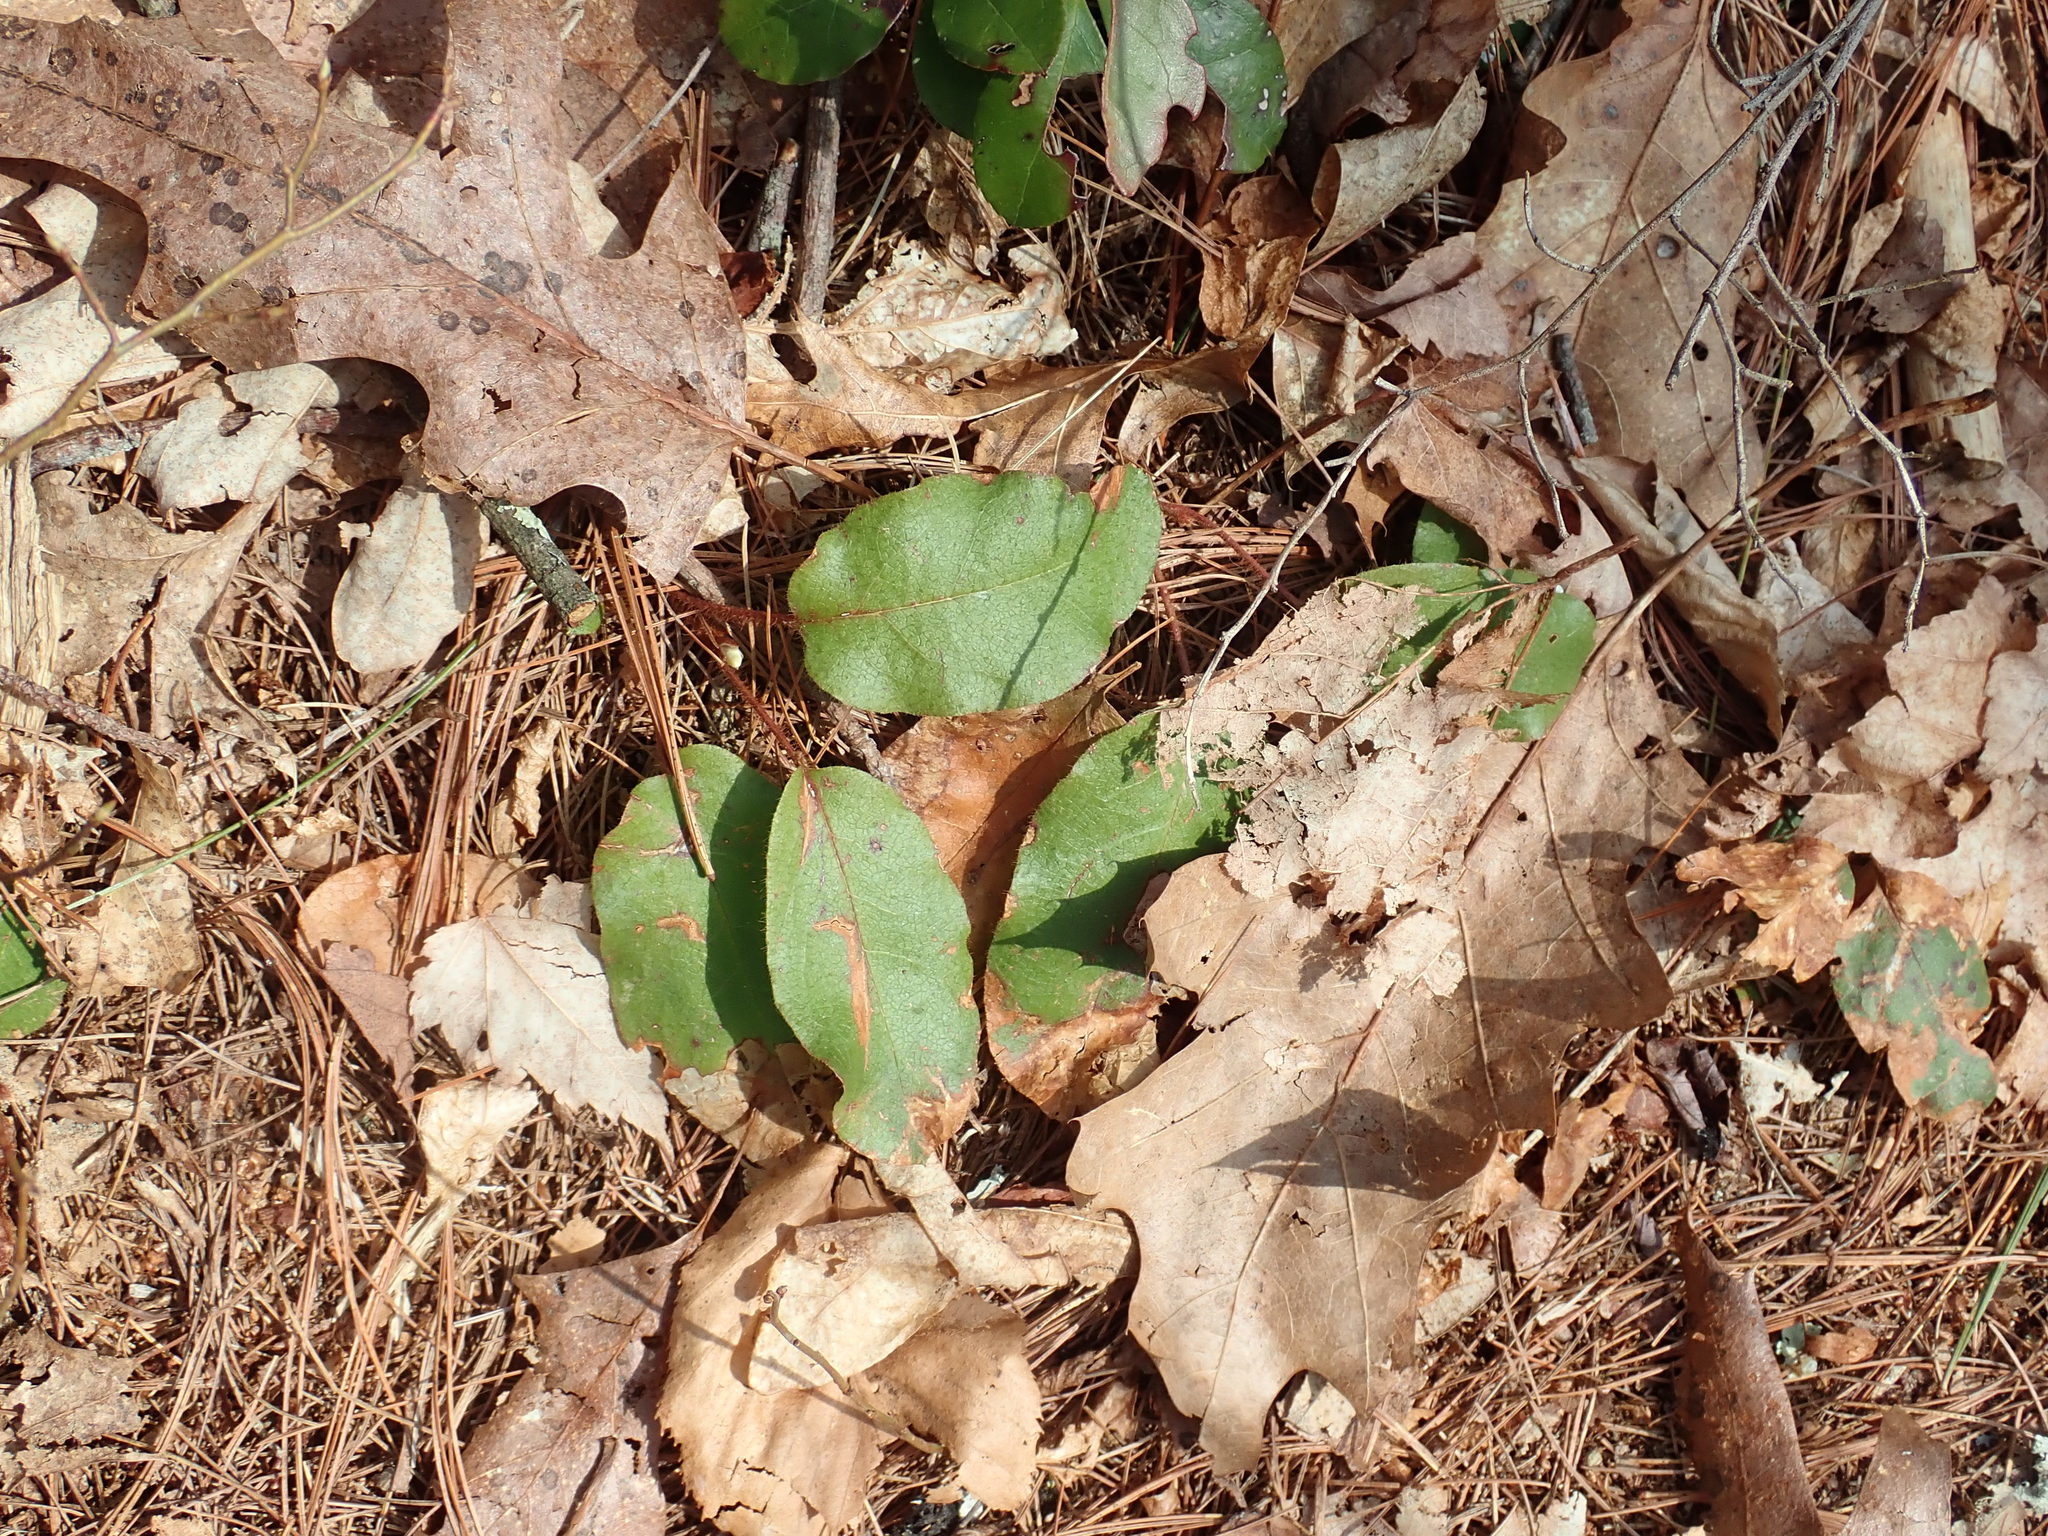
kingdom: Plantae
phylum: Tracheophyta
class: Magnoliopsida
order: Ericales
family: Ericaceae
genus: Epigaea
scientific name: Epigaea repens
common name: Gravelroot
